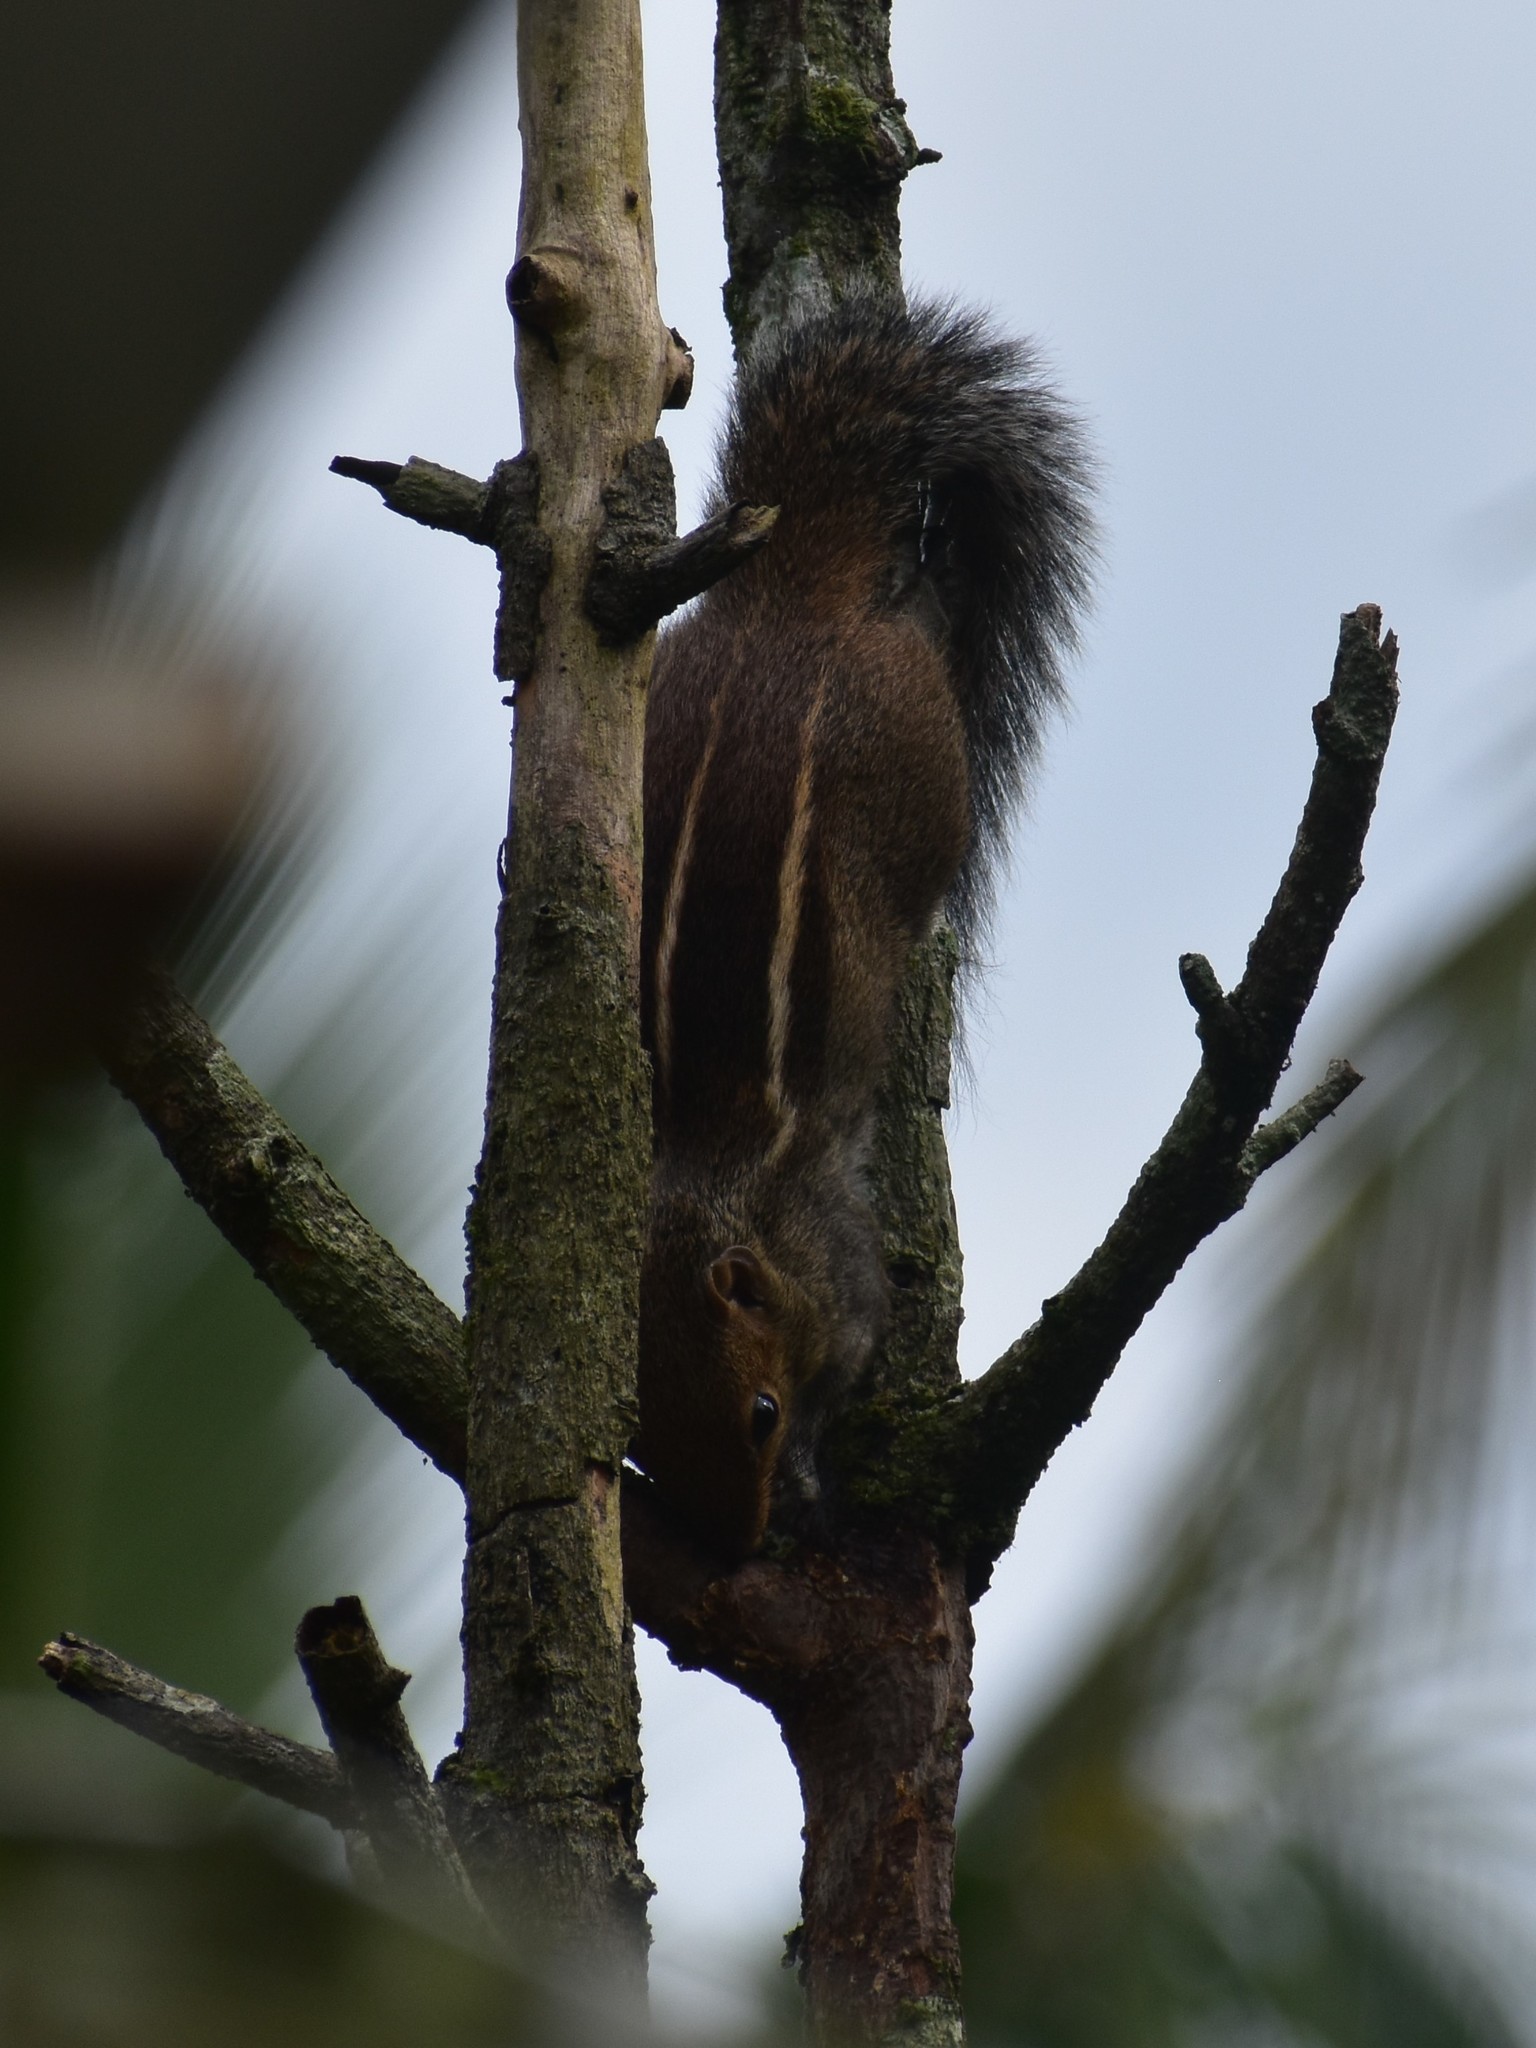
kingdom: Animalia
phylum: Chordata
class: Mammalia
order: Rodentia
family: Sciuridae
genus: Funambulus
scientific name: Funambulus tristriatus
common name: Jungle palm squirrel
